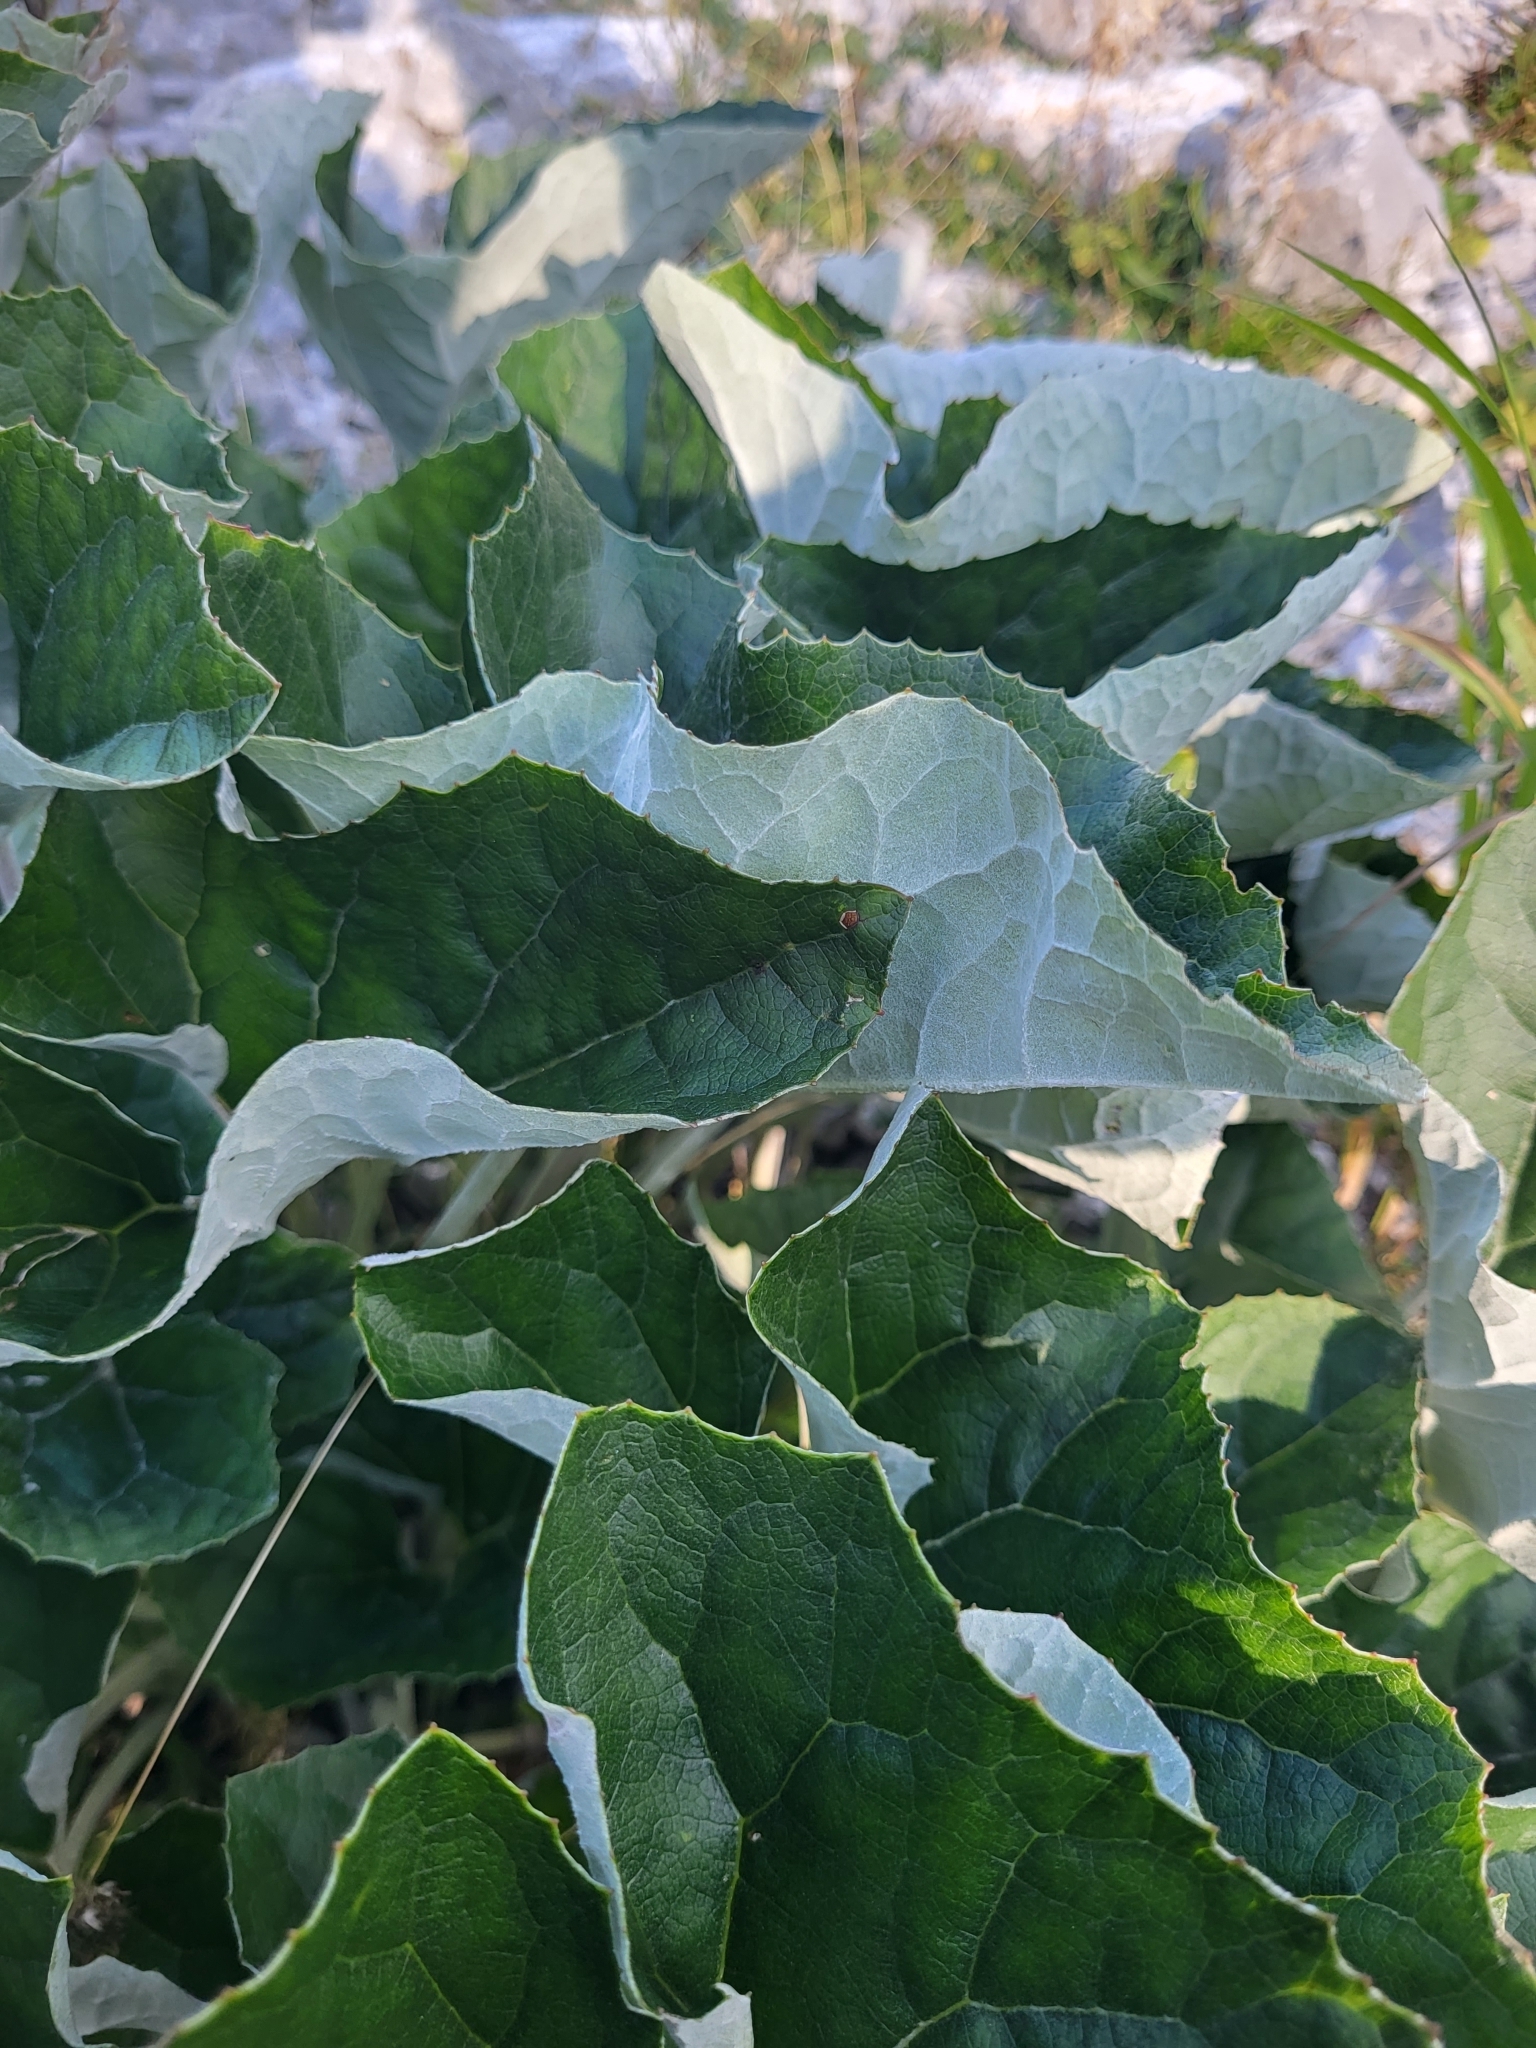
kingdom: Plantae
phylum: Tracheophyta
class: Magnoliopsida
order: Asterales
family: Asteraceae
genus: Petasites
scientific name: Petasites paradoxus
